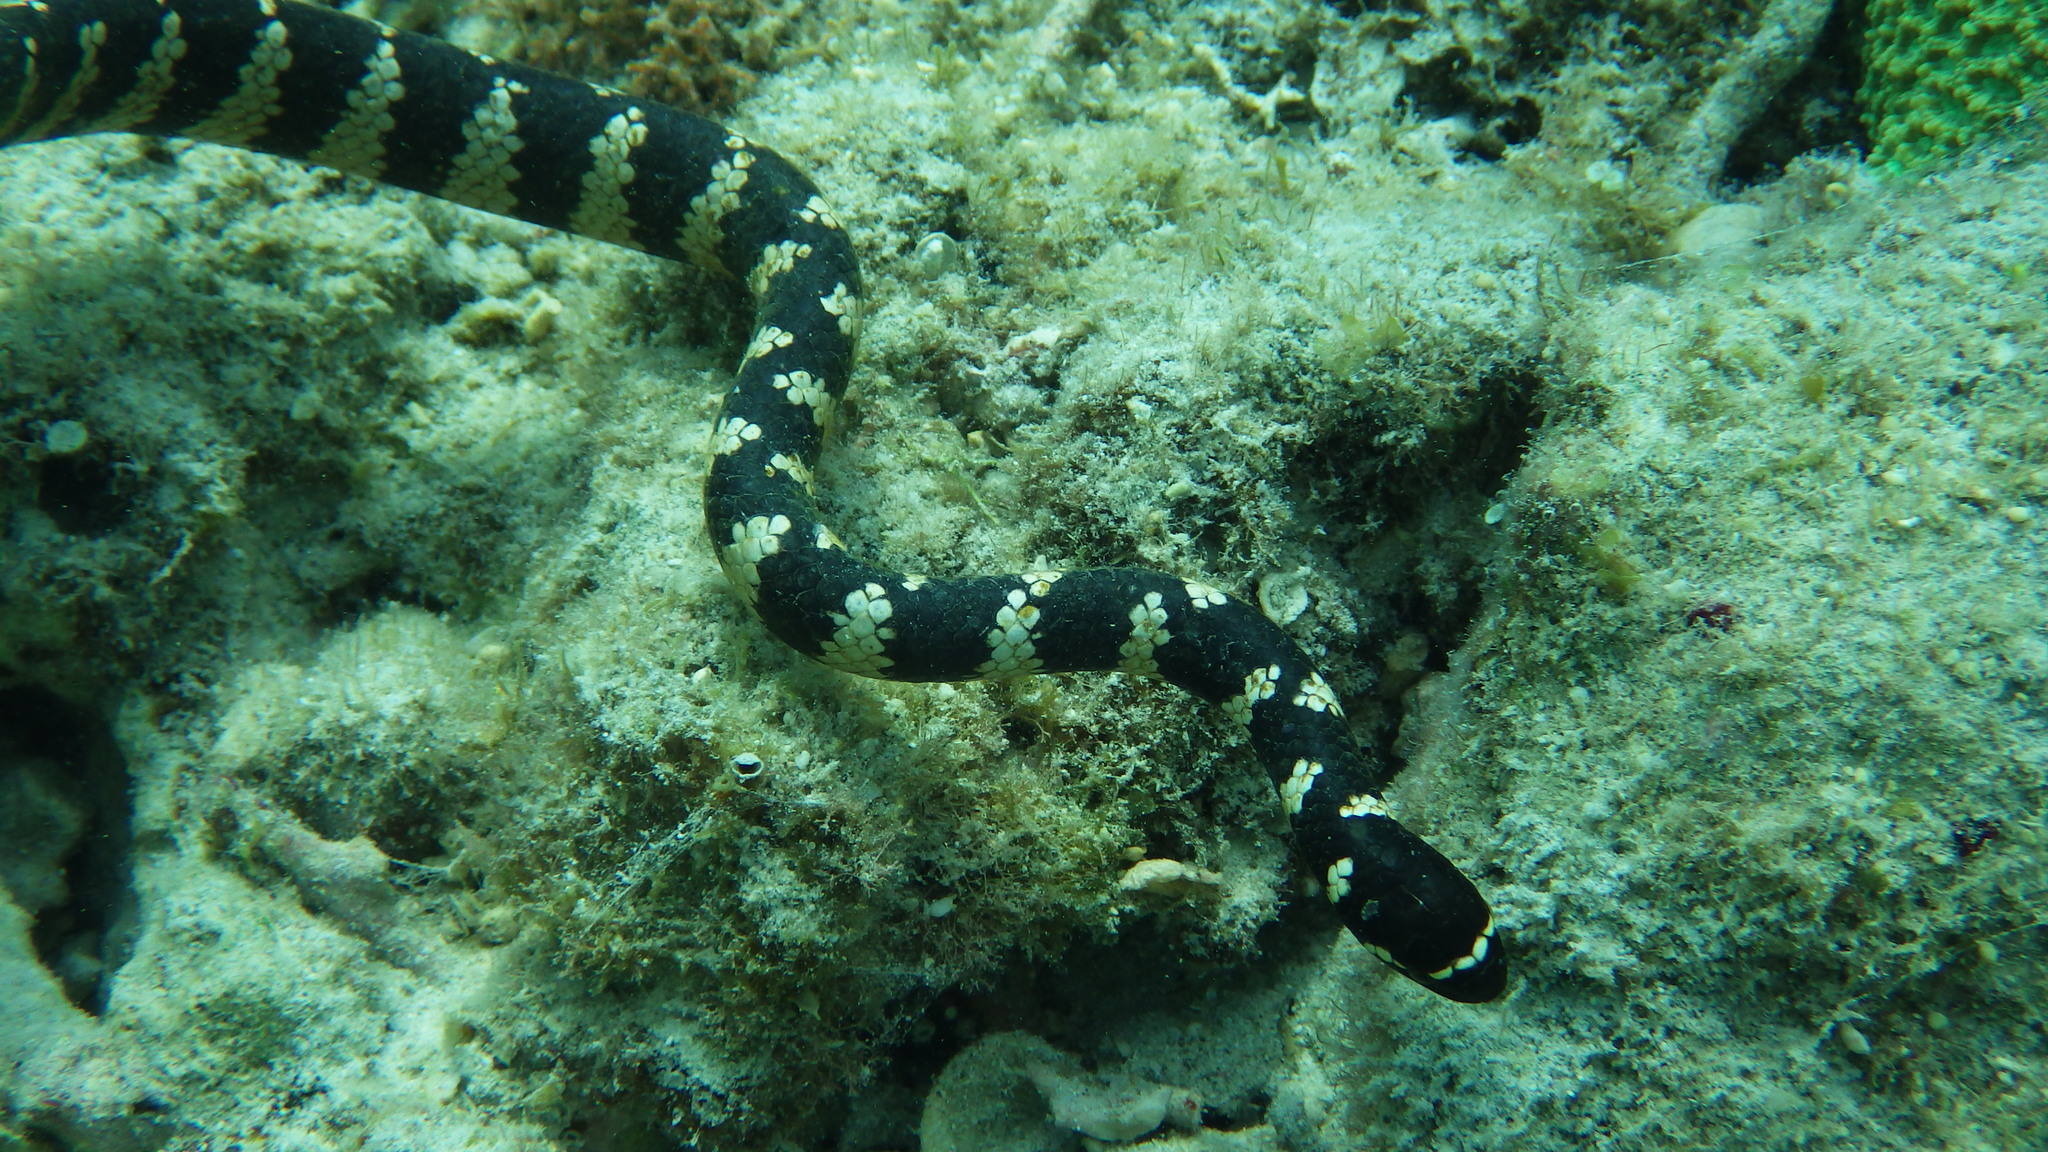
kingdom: Animalia
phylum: Chordata
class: Squamata
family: Elapidae
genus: Emydocephalus
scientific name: Emydocephalus ijimae
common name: Turtlehead sea snake
